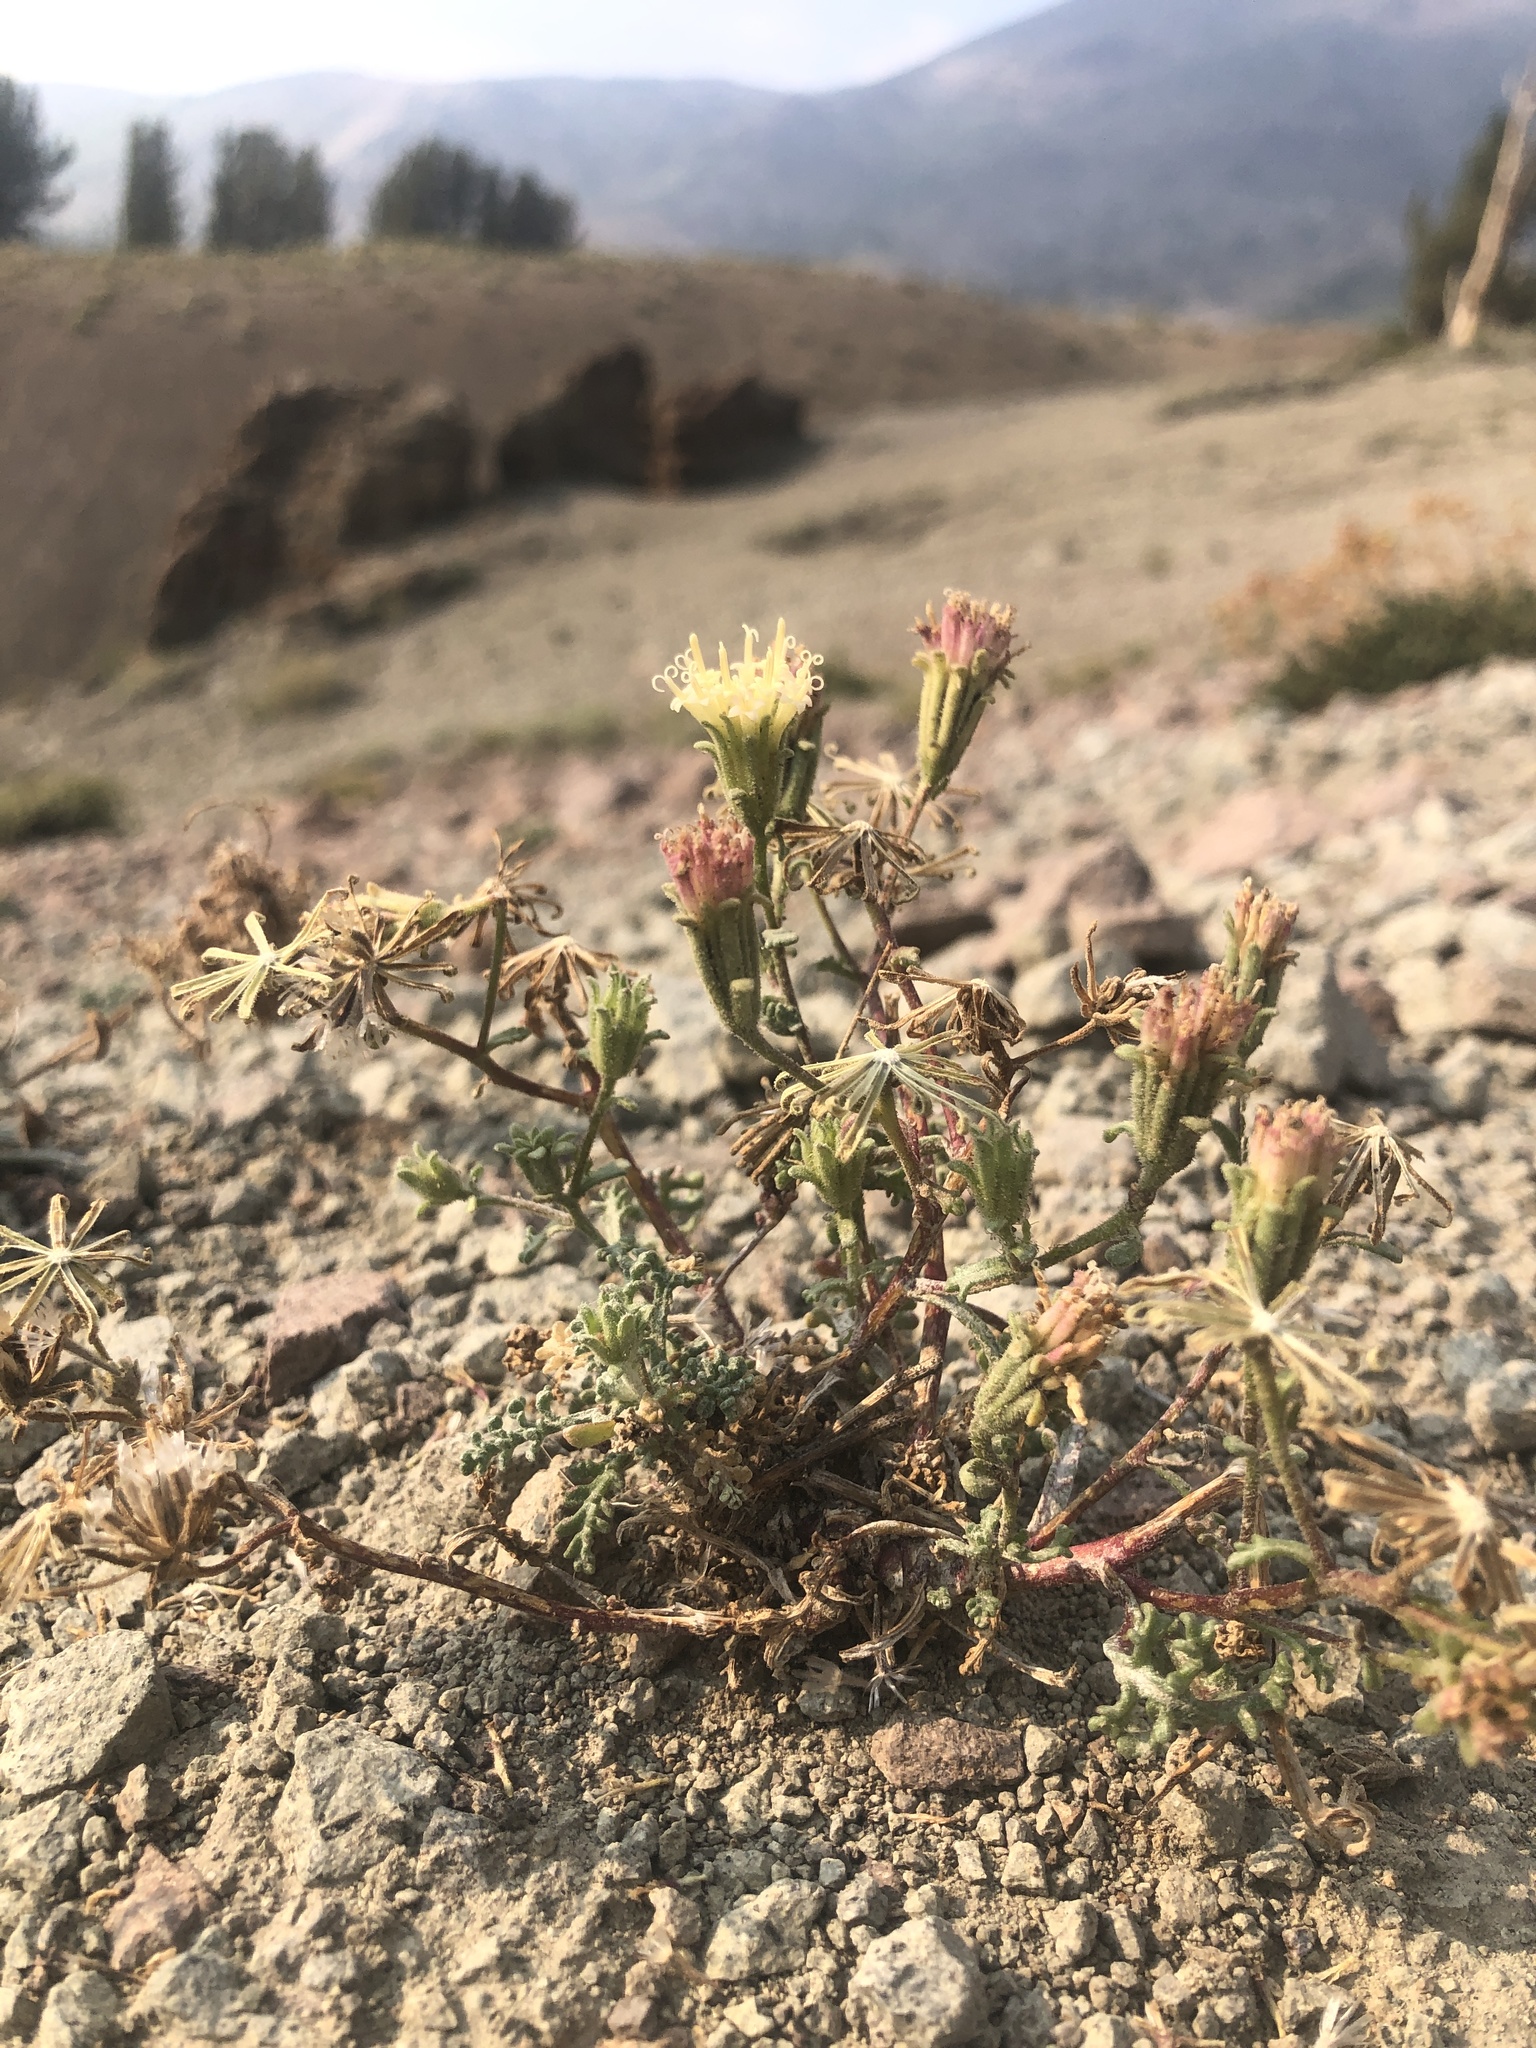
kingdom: Plantae
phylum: Tracheophyta
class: Magnoliopsida
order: Asterales
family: Asteraceae
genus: Chaenactis
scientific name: Chaenactis douglasii
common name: Hoary pincushion
